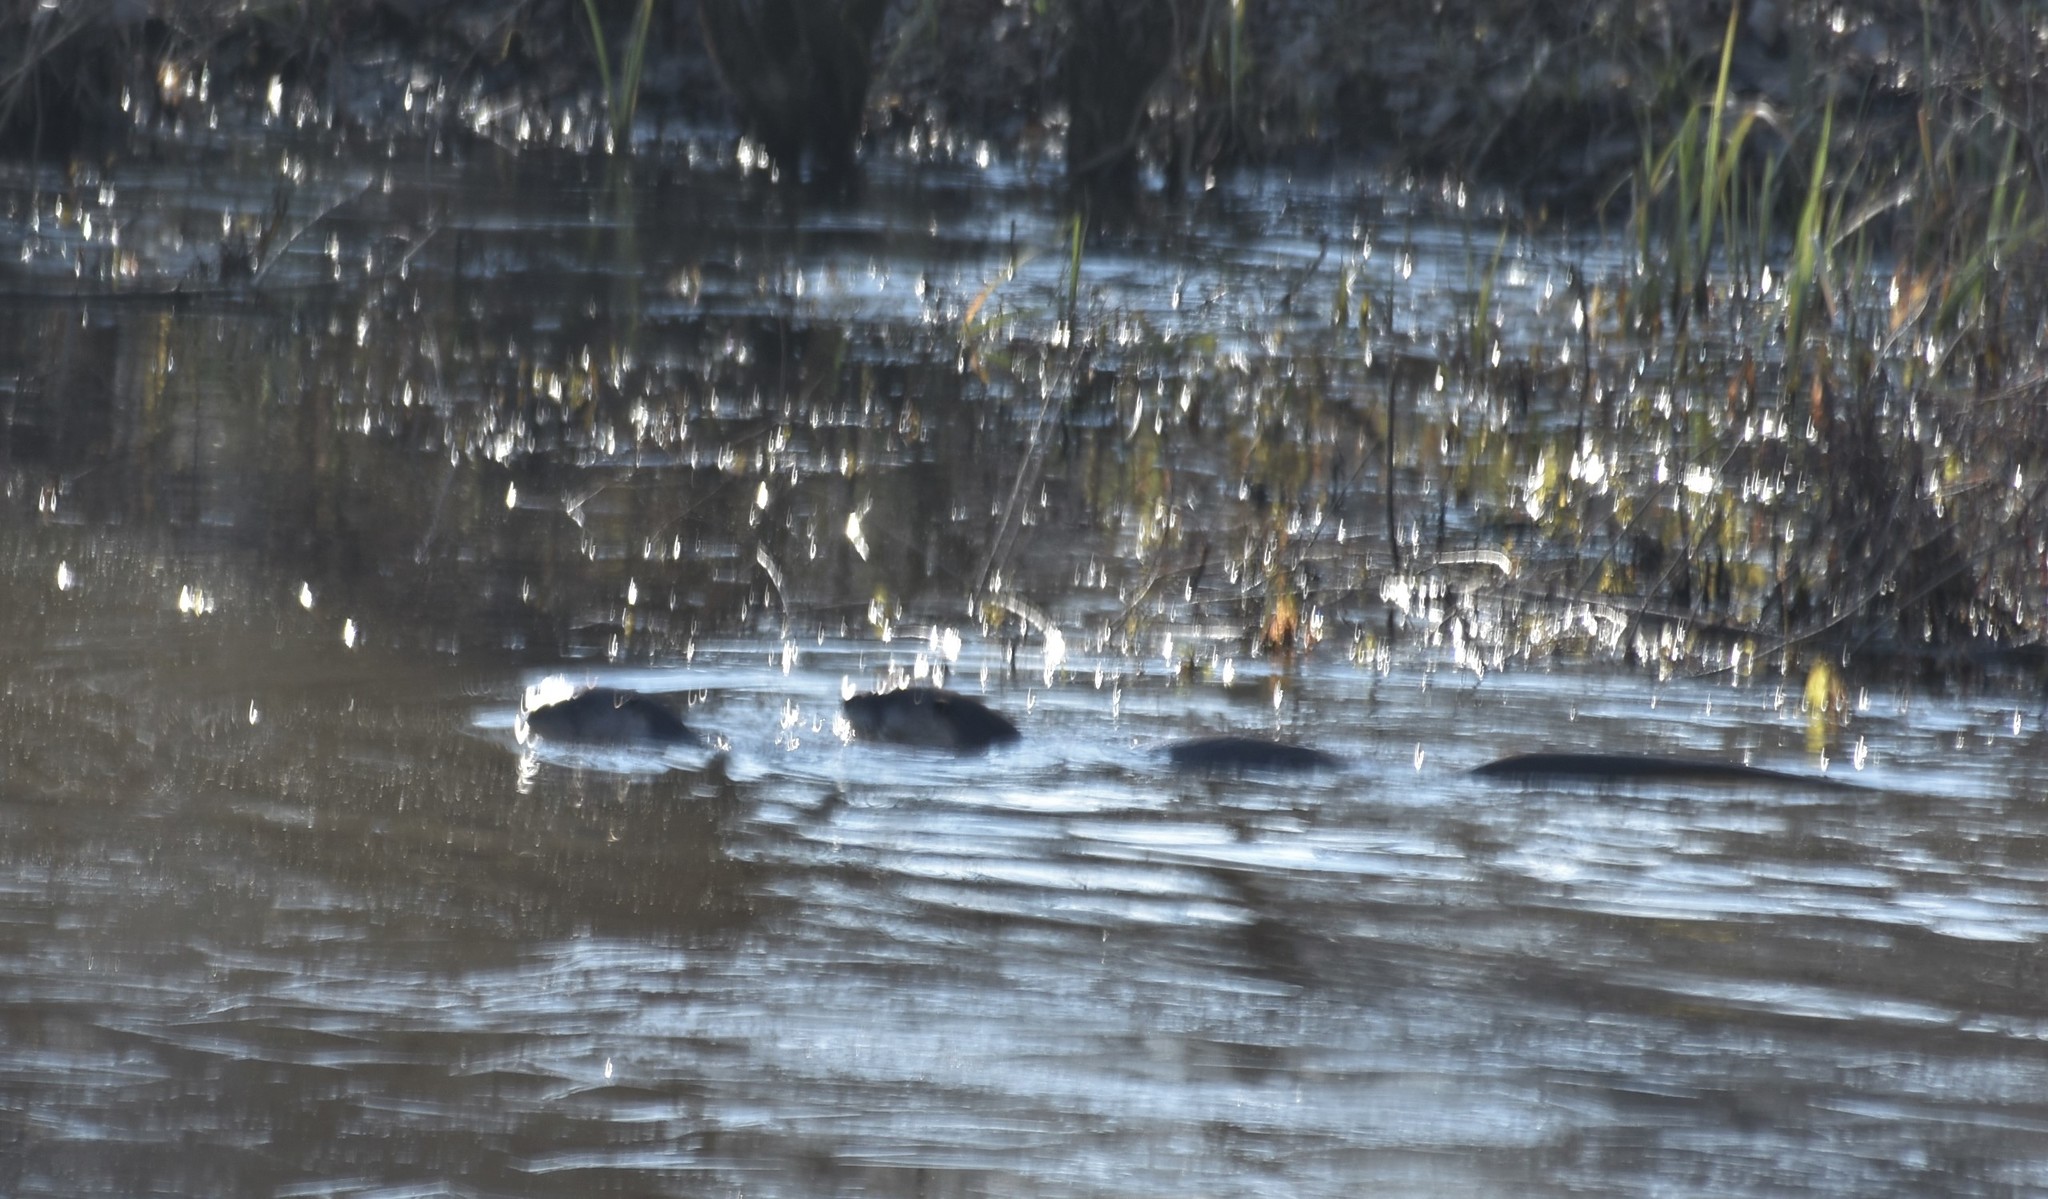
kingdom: Animalia
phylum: Chordata
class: Mammalia
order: Carnivora
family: Mustelidae
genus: Lontra
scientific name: Lontra canadensis
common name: North american river otter
